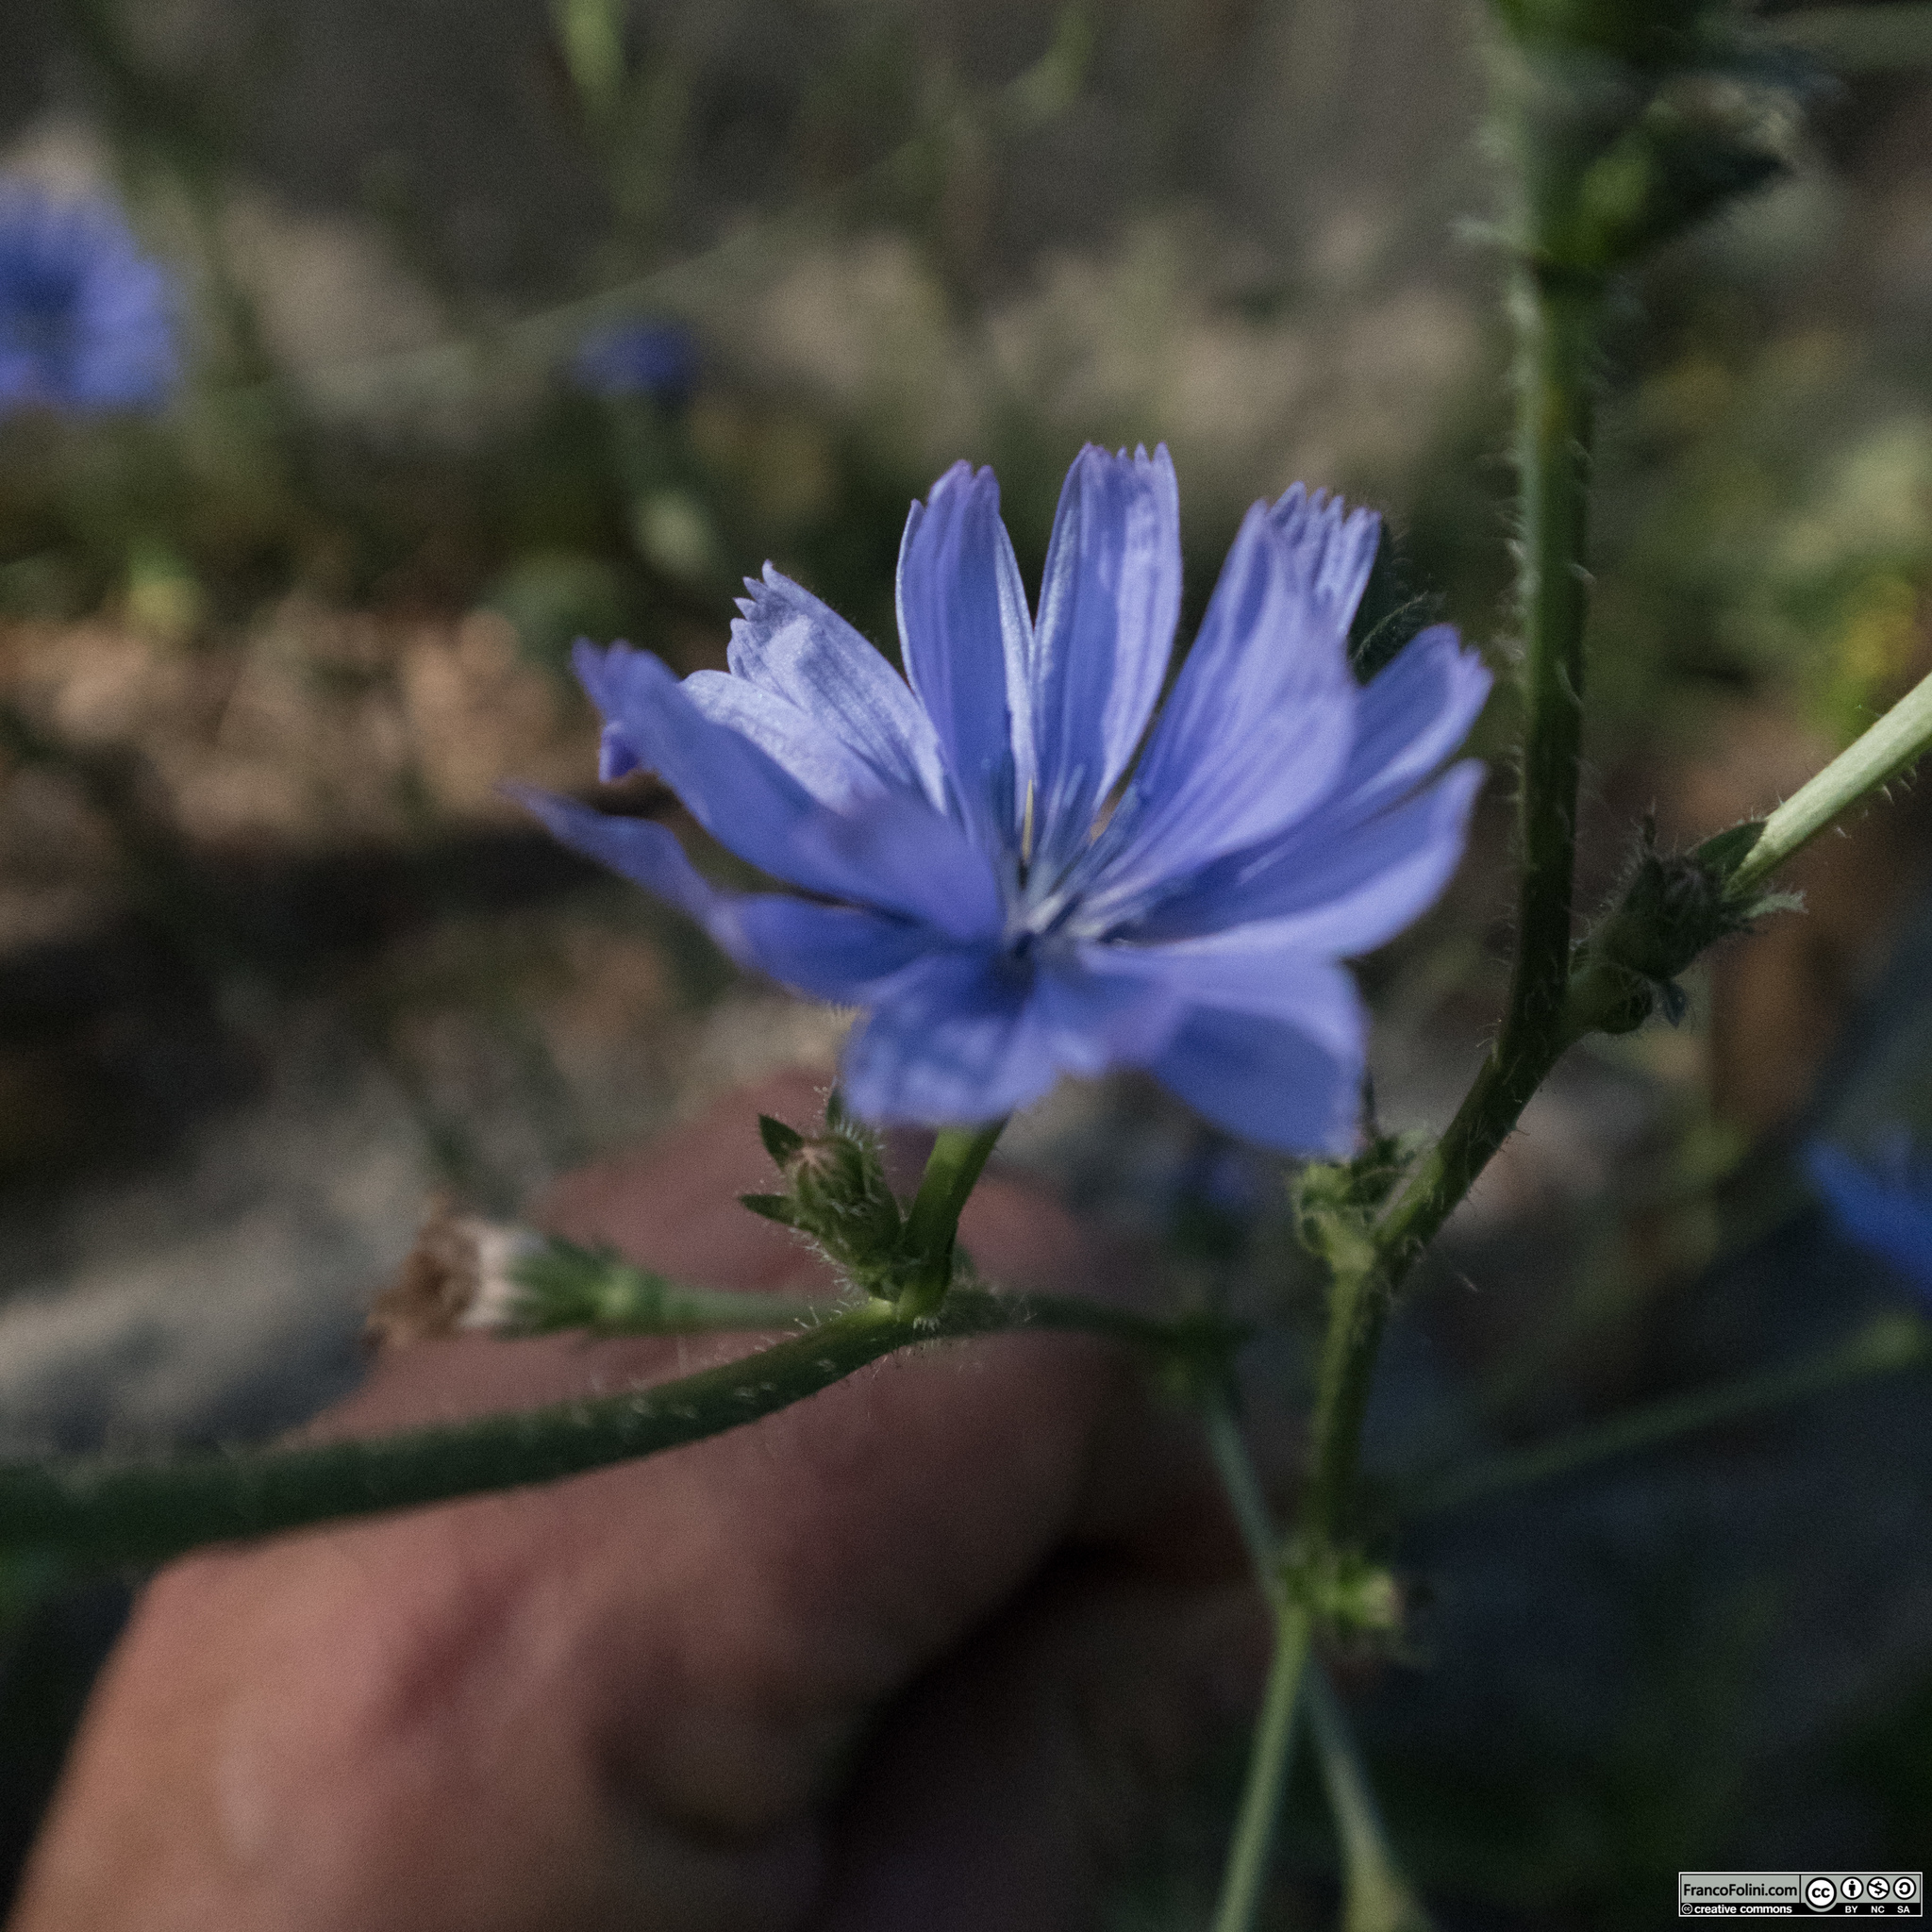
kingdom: Plantae
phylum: Tracheophyta
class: Magnoliopsida
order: Asterales
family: Asteraceae
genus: Cichorium
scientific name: Cichorium intybus
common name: Chicory
